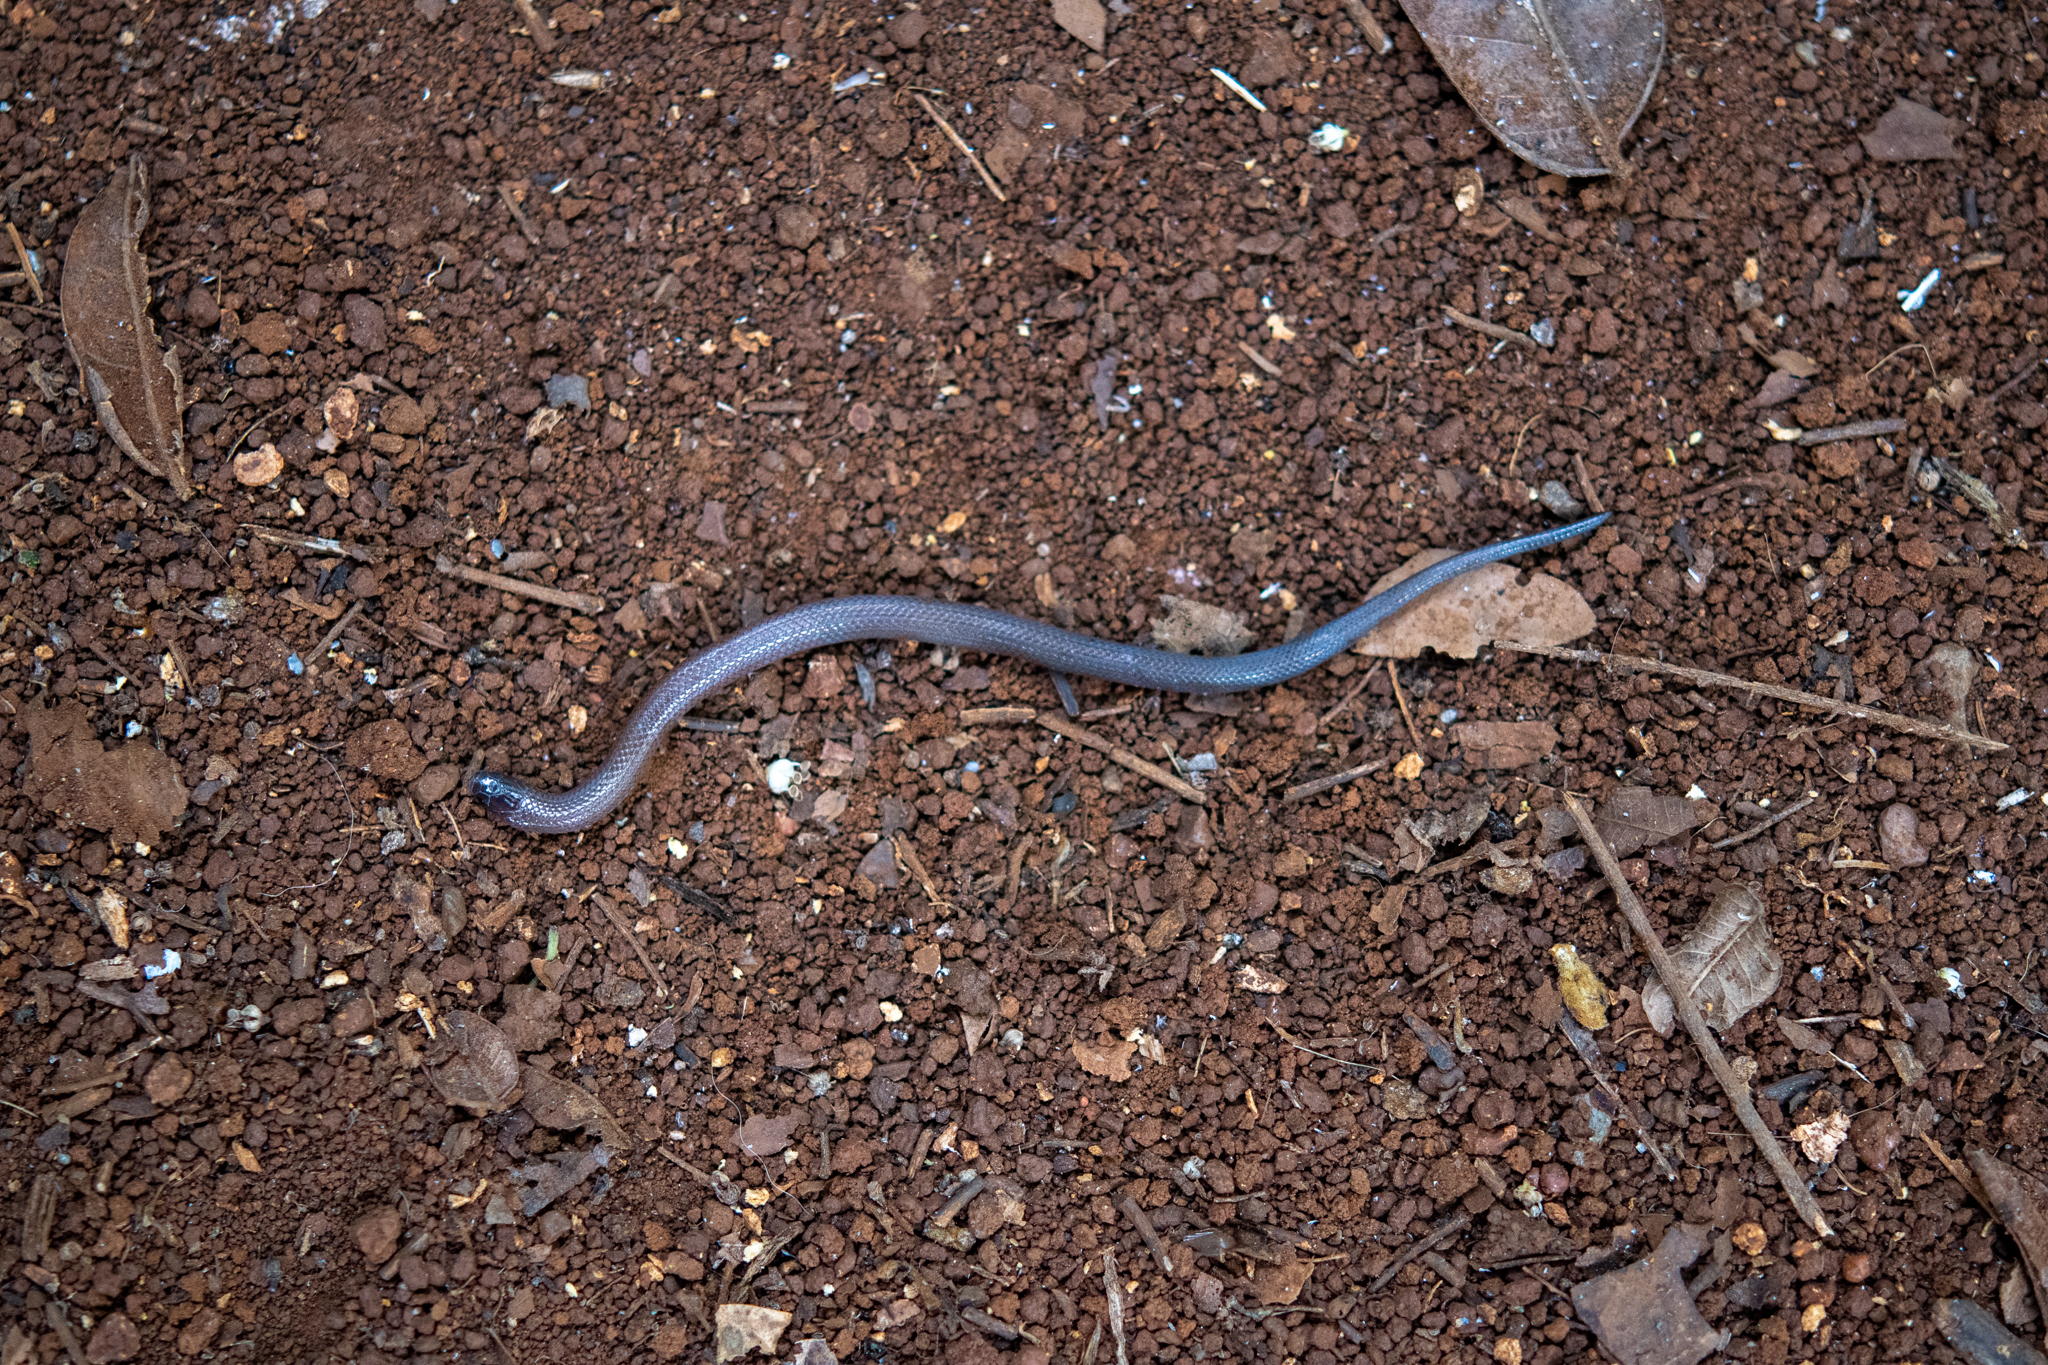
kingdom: Animalia
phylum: Chordata
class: Squamata
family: Colubridae
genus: Tantillita
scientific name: Tantillita lintoni
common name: Brown dwarf short-tailed snake
